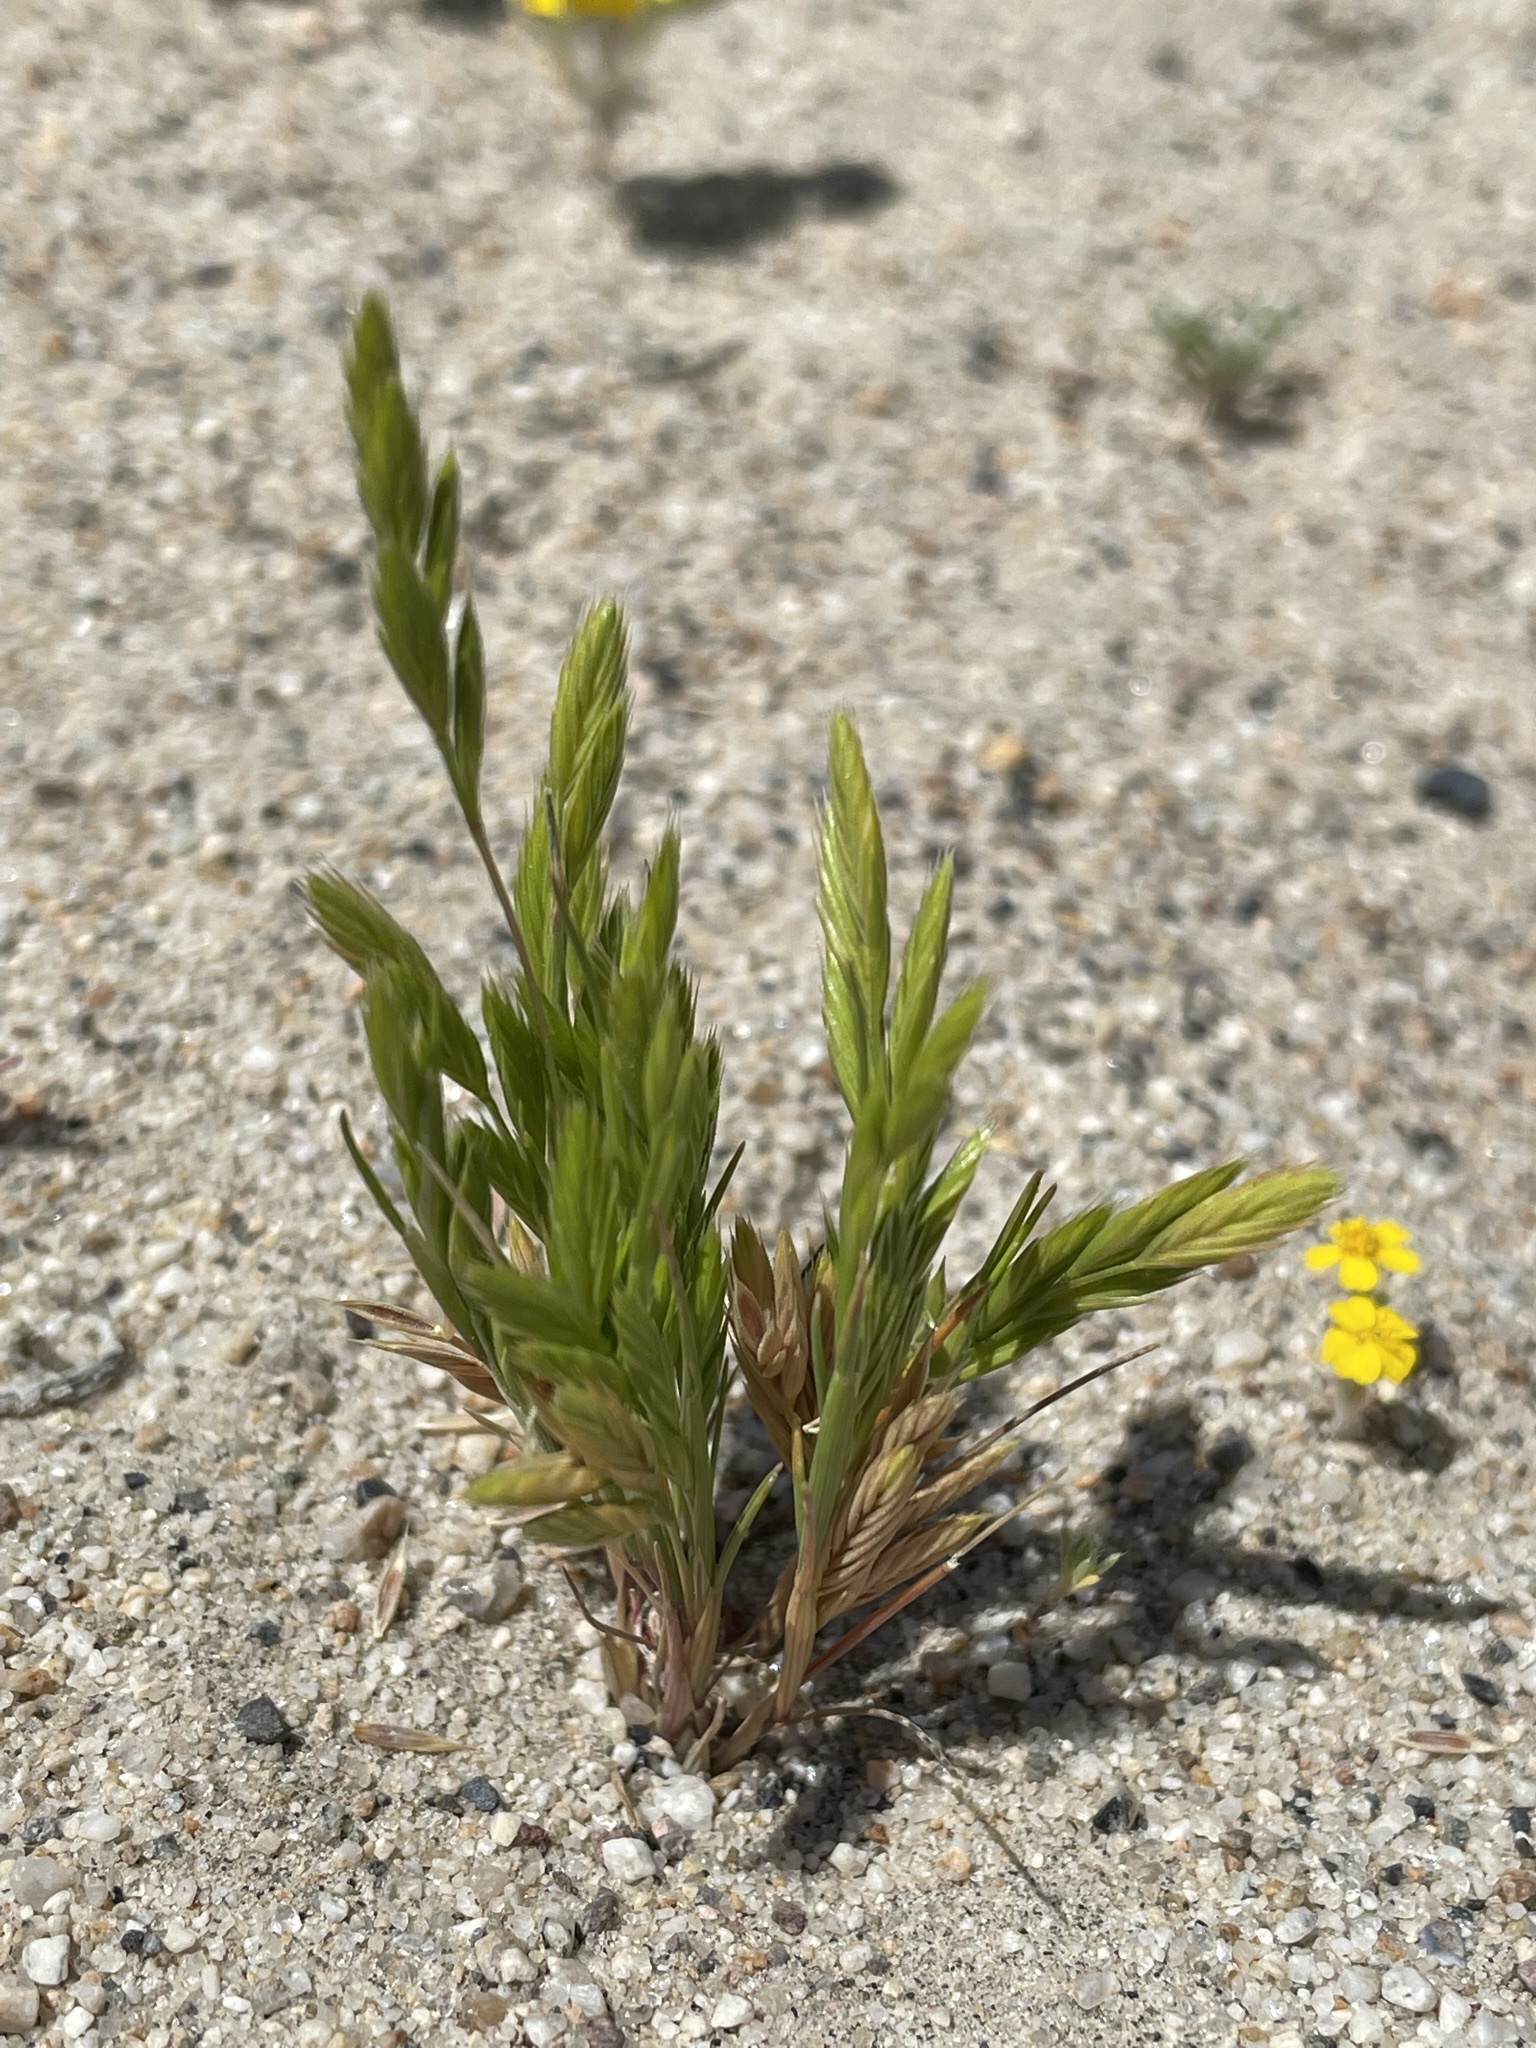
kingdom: Plantae
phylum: Tracheophyta
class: Liliopsida
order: Poales
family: Poaceae
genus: Festuca
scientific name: Festuca octoflora
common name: Sixweeks grass
